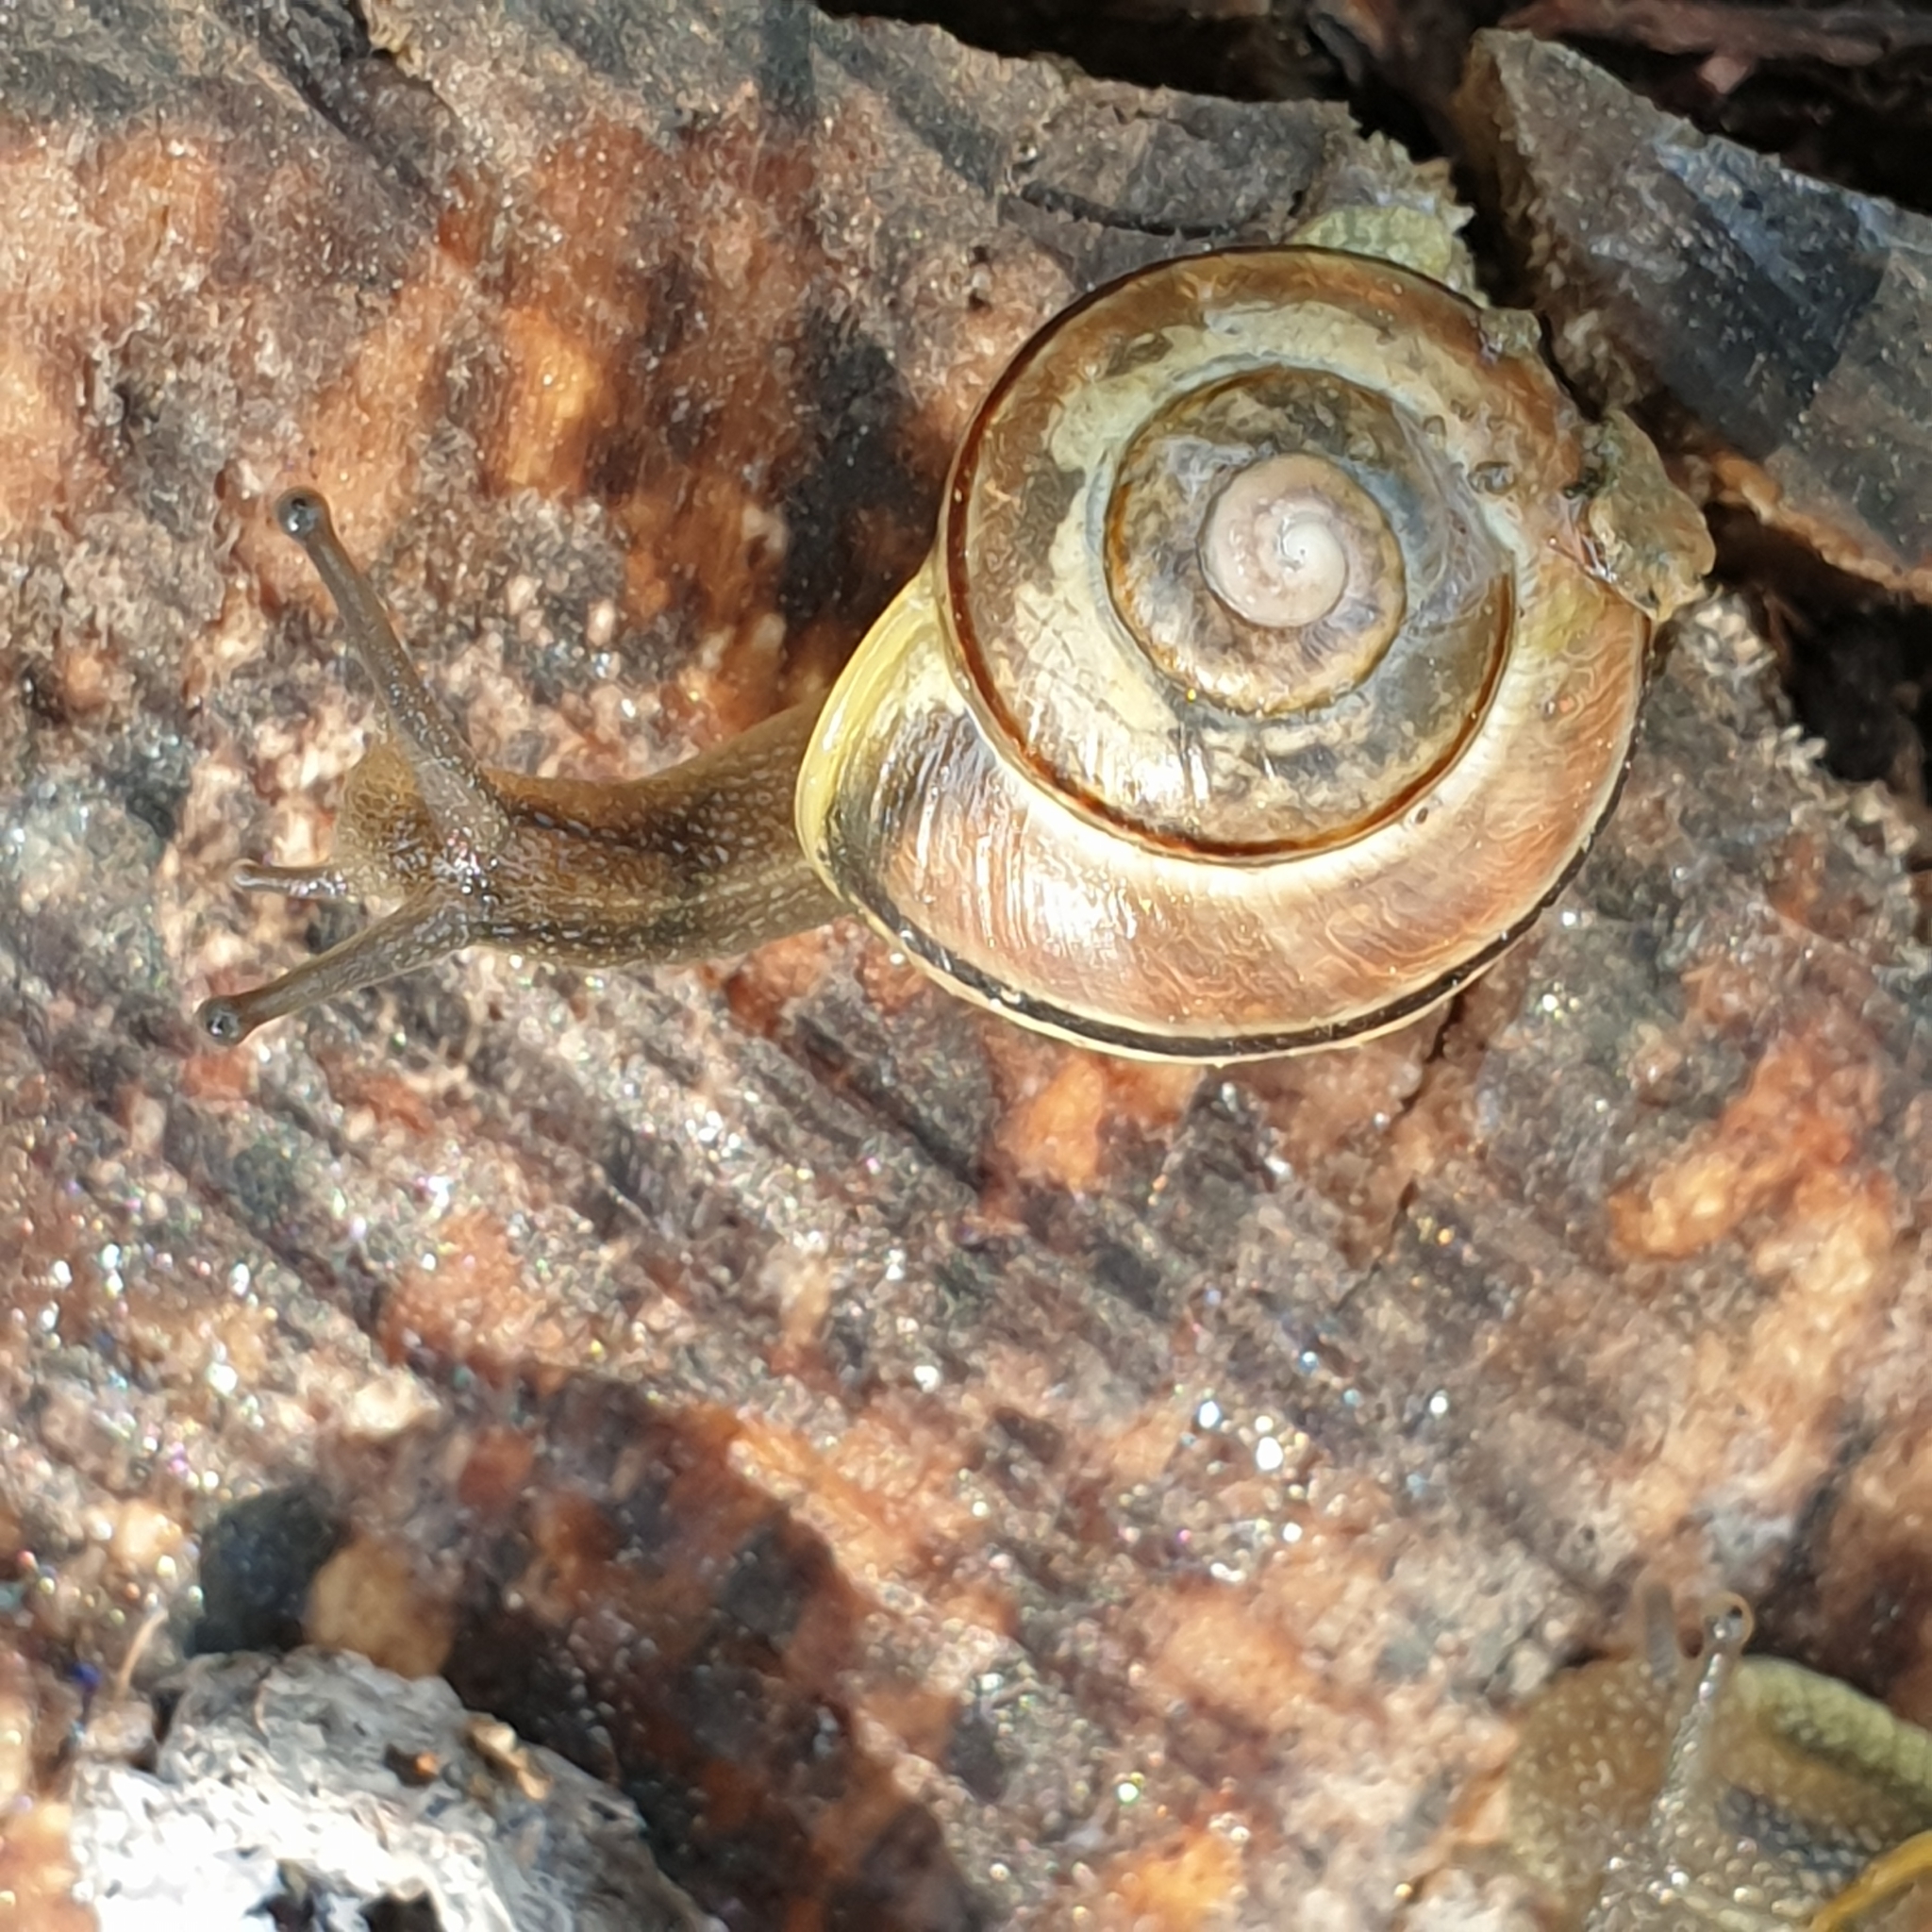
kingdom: Animalia
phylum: Mollusca
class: Gastropoda
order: Stylommatophora
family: Helicidae
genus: Cepaea
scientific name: Cepaea
